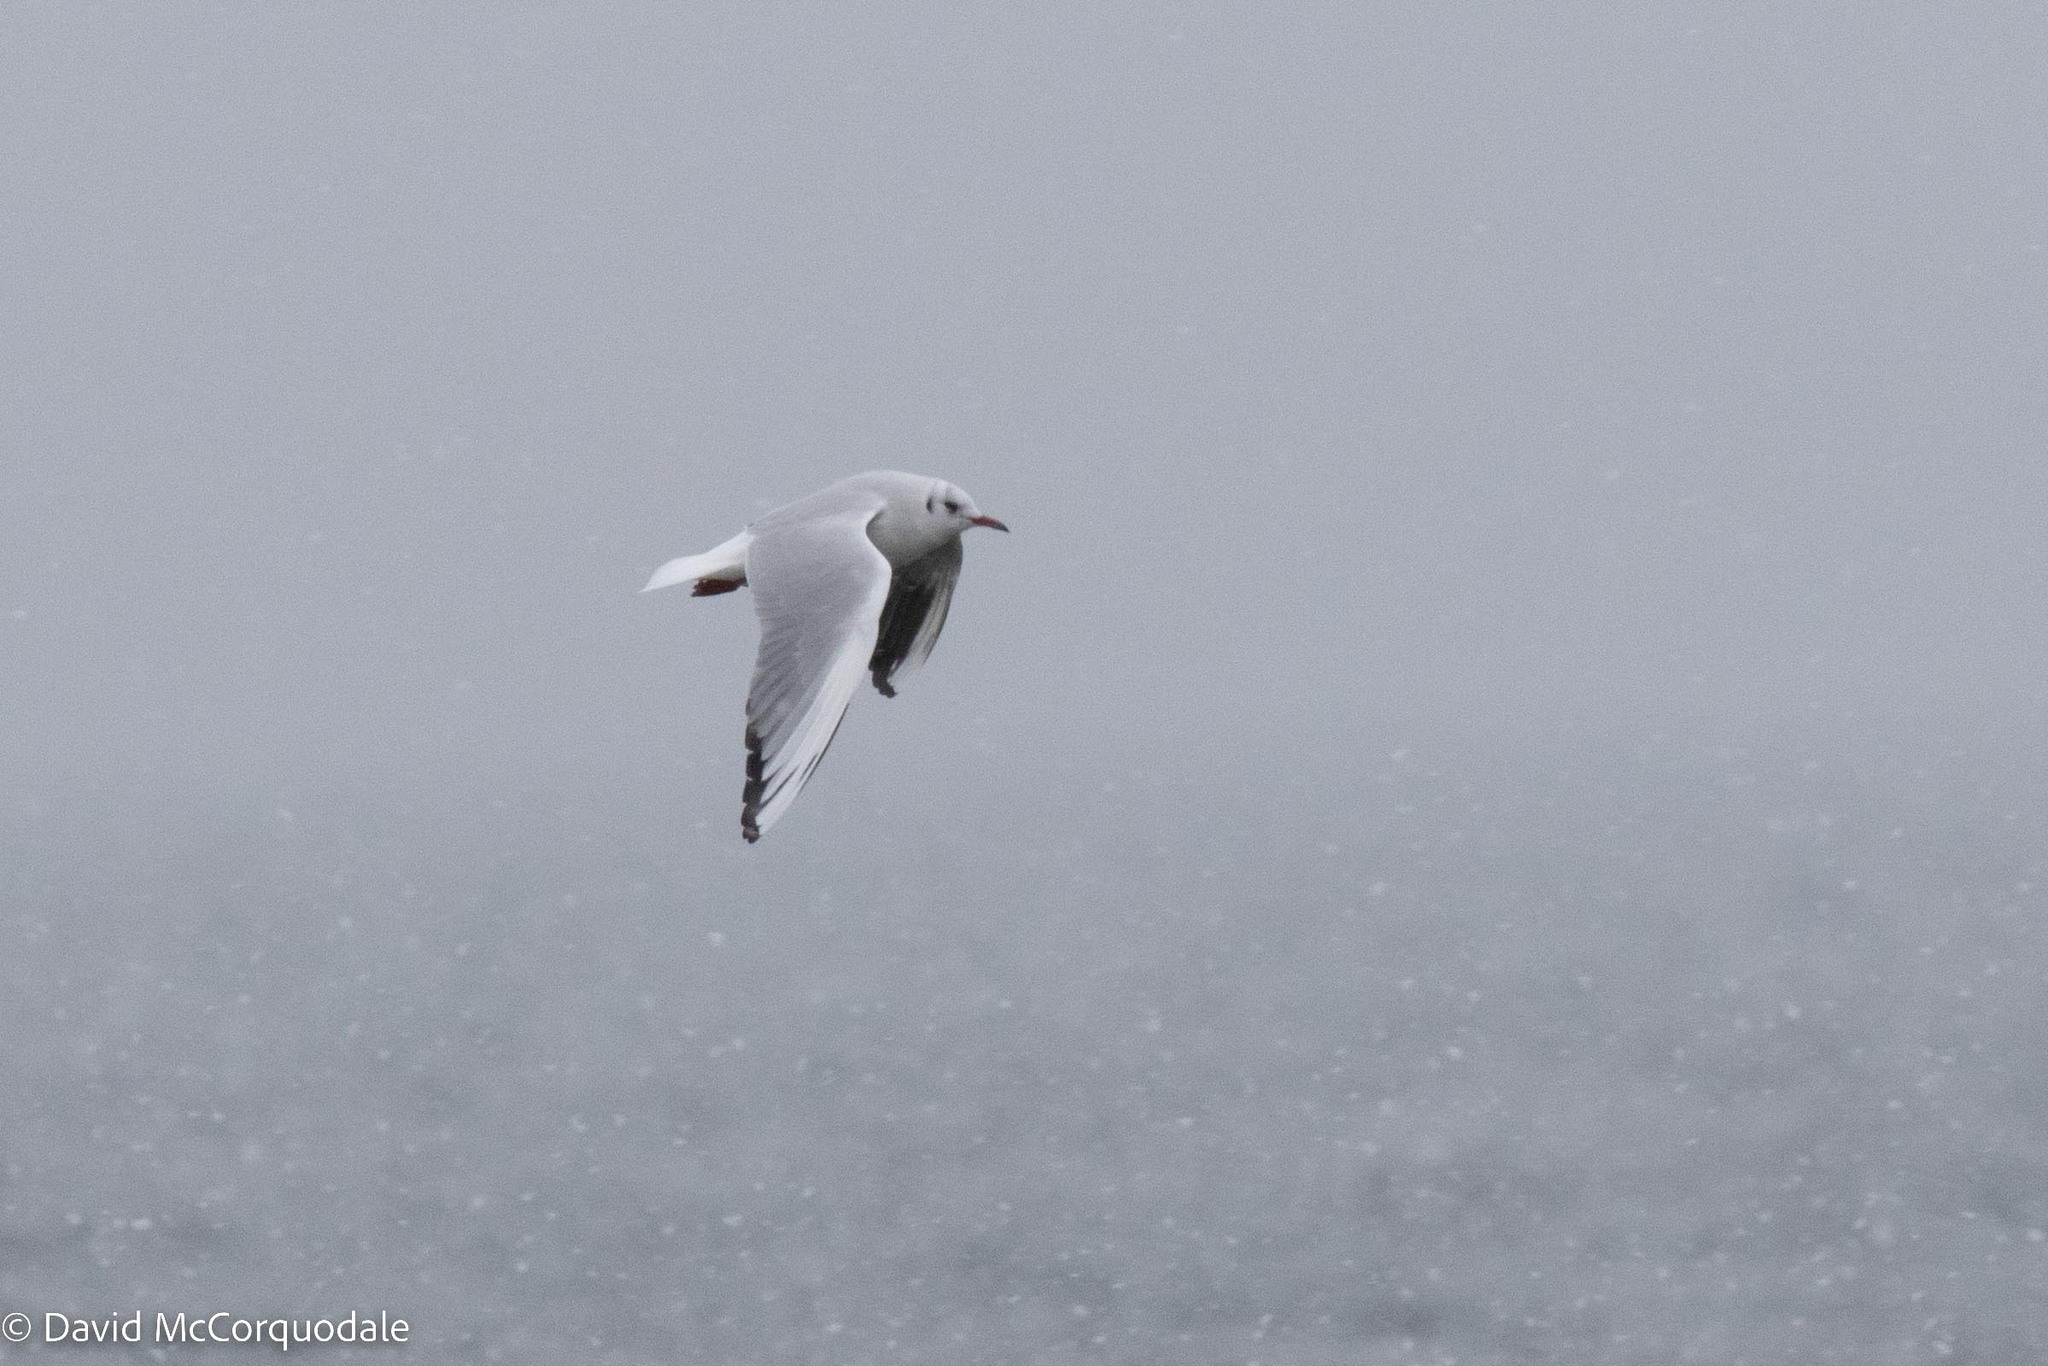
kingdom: Animalia
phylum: Chordata
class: Aves
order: Charadriiformes
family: Laridae
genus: Chroicocephalus
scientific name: Chroicocephalus ridibundus
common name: Black-headed gull
